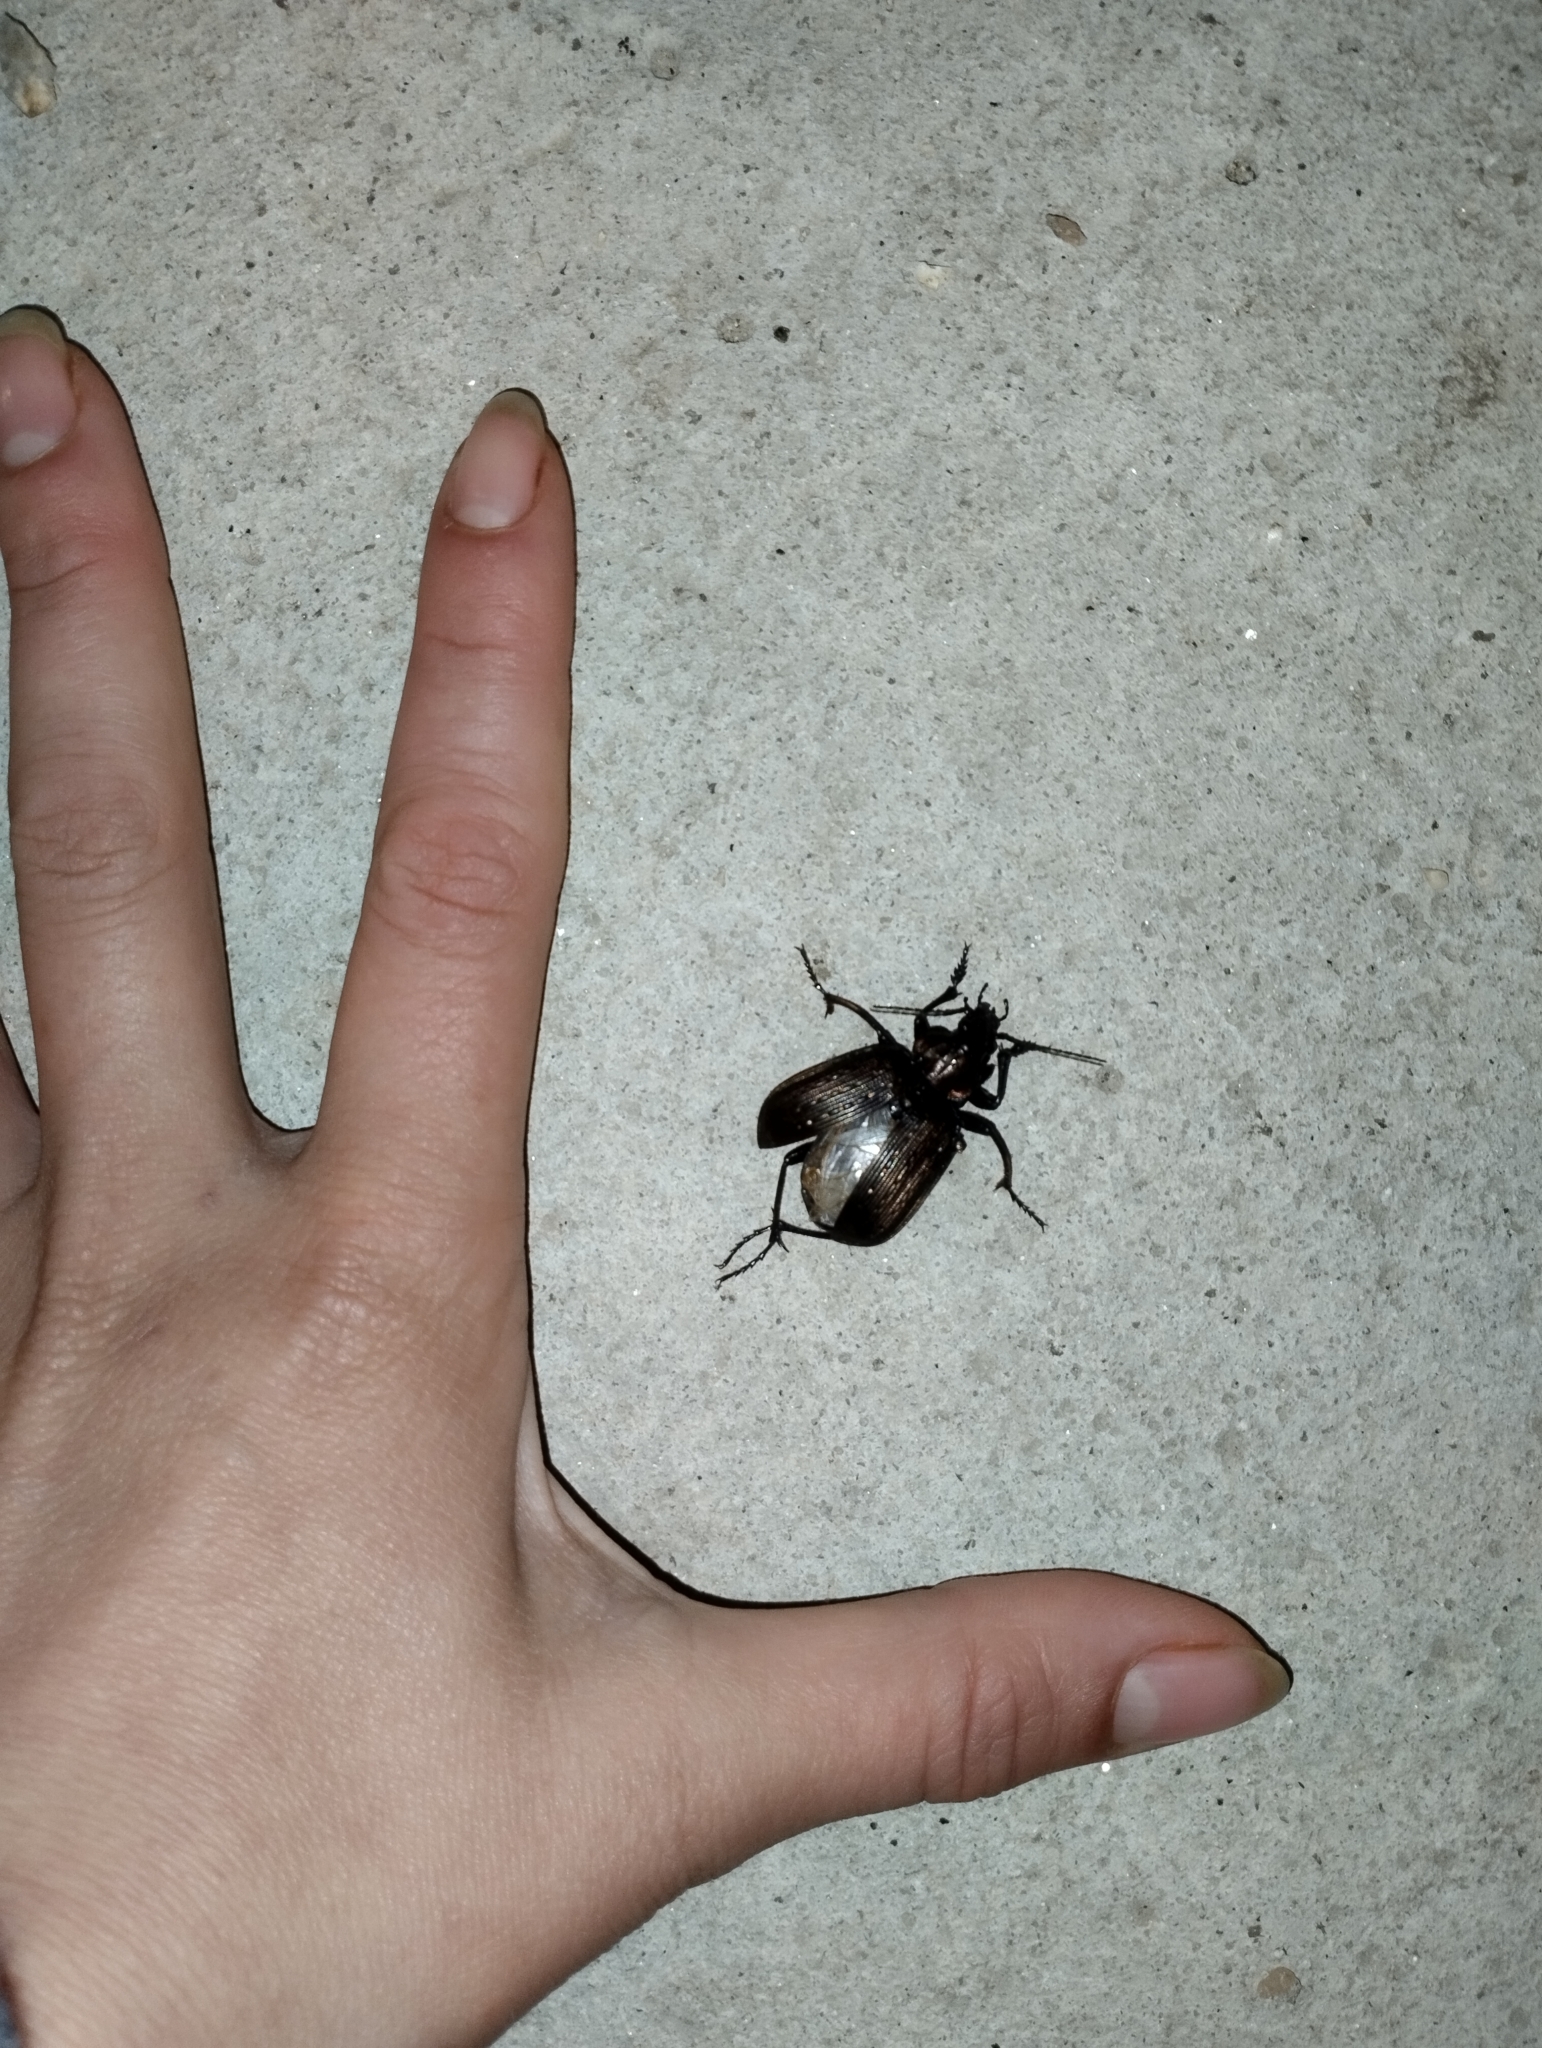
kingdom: Animalia
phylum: Arthropoda
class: Insecta
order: Coleoptera
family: Carabidae
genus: Calosoma
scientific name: Calosoma alternans
